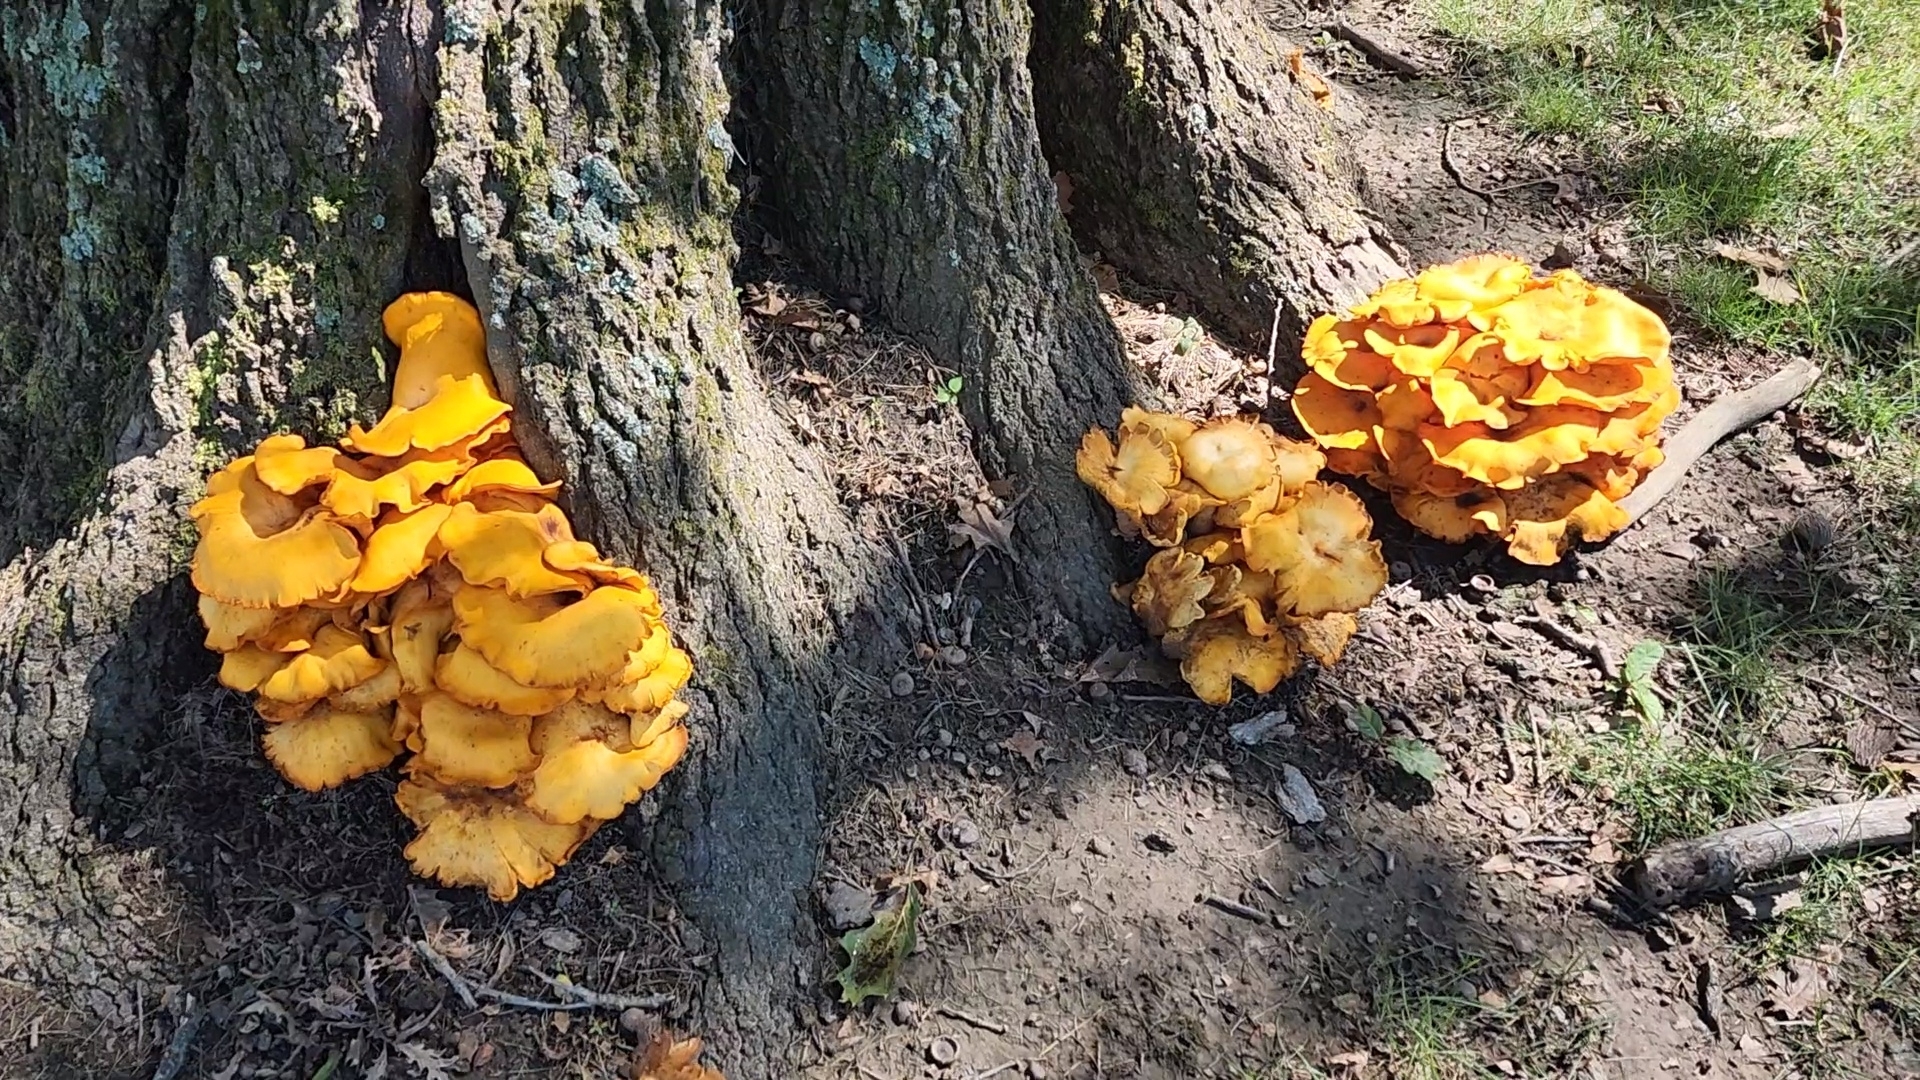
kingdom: Fungi
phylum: Basidiomycota
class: Agaricomycetes
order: Agaricales
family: Omphalotaceae
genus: Omphalotus
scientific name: Omphalotus illudens
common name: Jack o lantern
